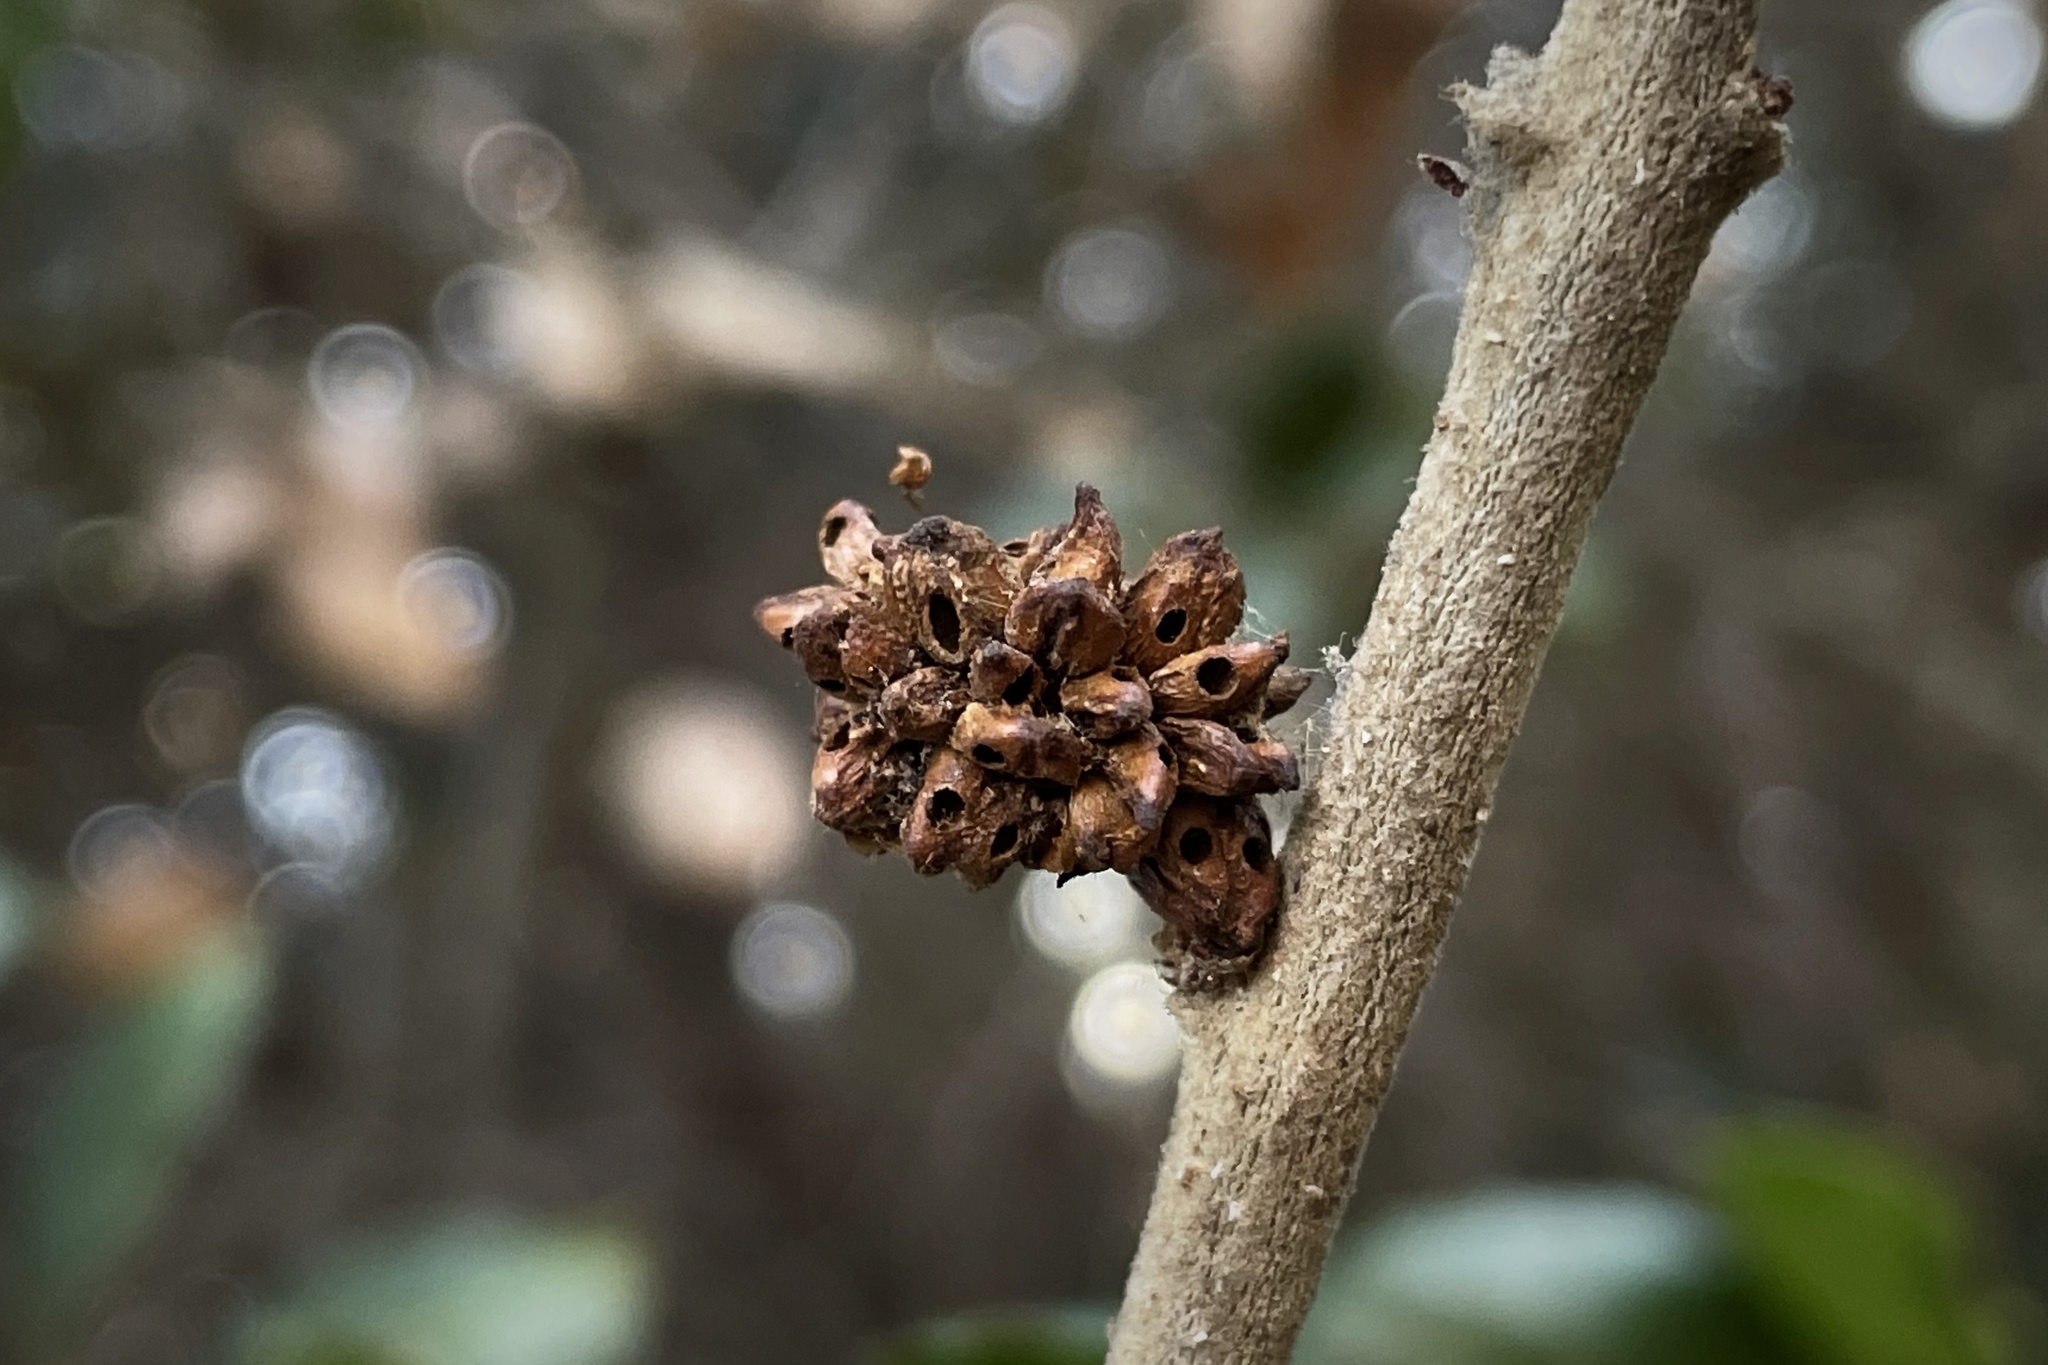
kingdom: Animalia
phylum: Arthropoda
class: Insecta
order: Hymenoptera
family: Cynipidae
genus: Callirhytis
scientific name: Callirhytis
